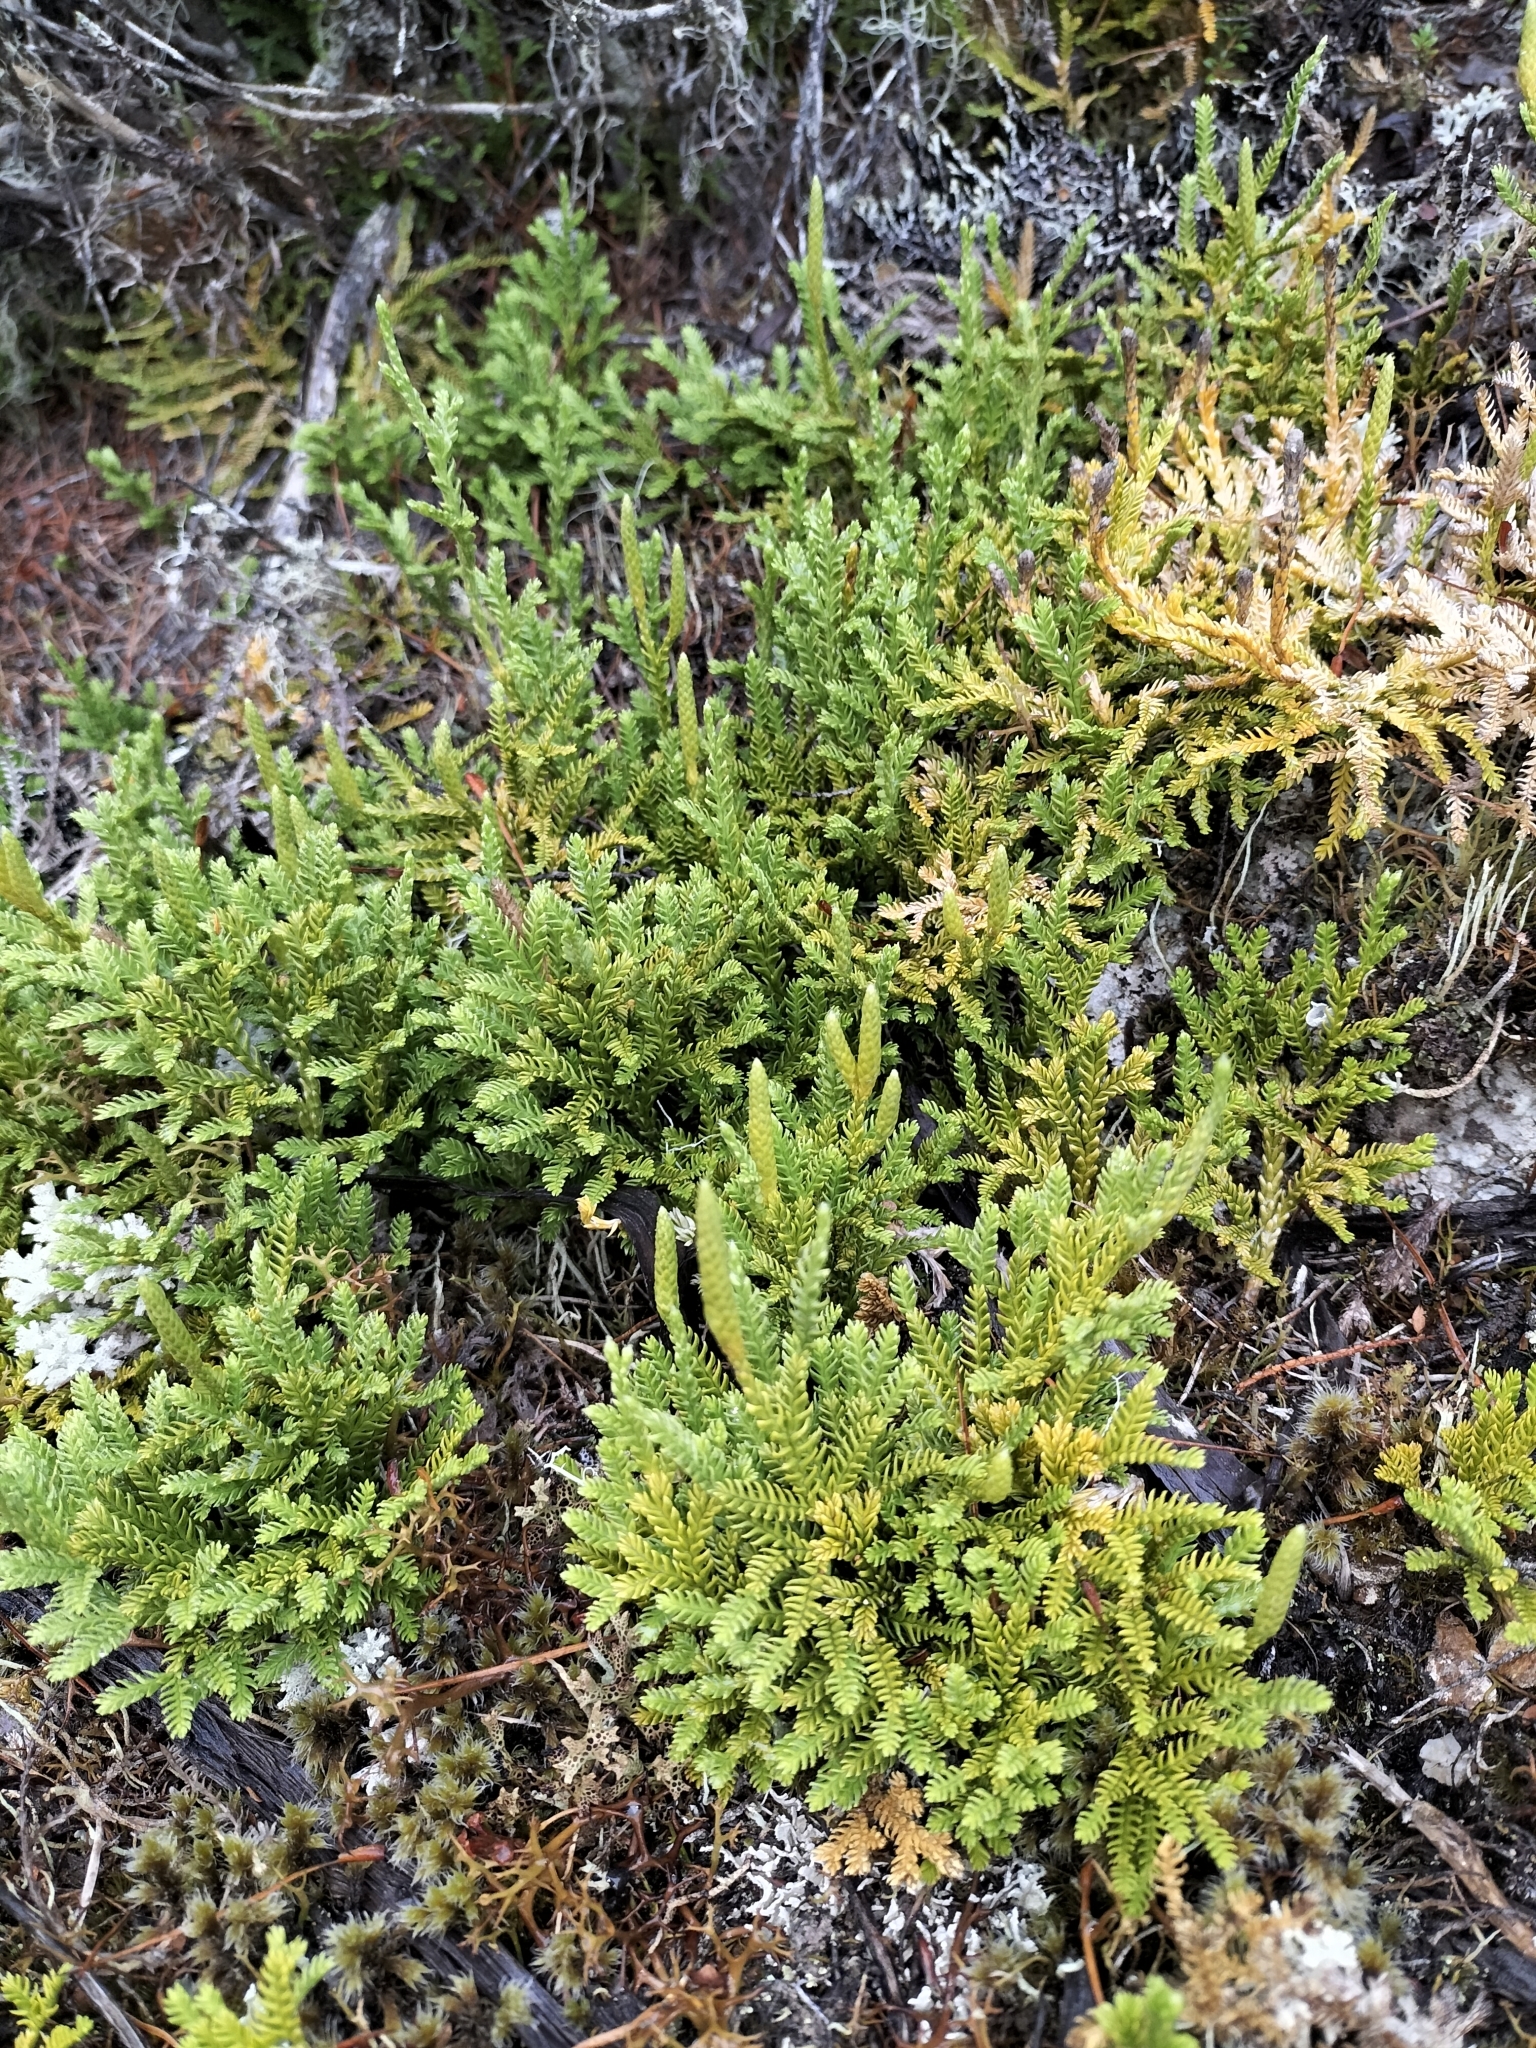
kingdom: Plantae
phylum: Tracheophyta
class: Lycopodiopsida
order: Lycopodiales
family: Lycopodiaceae
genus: Diphasium
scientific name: Diphasium scariosum
